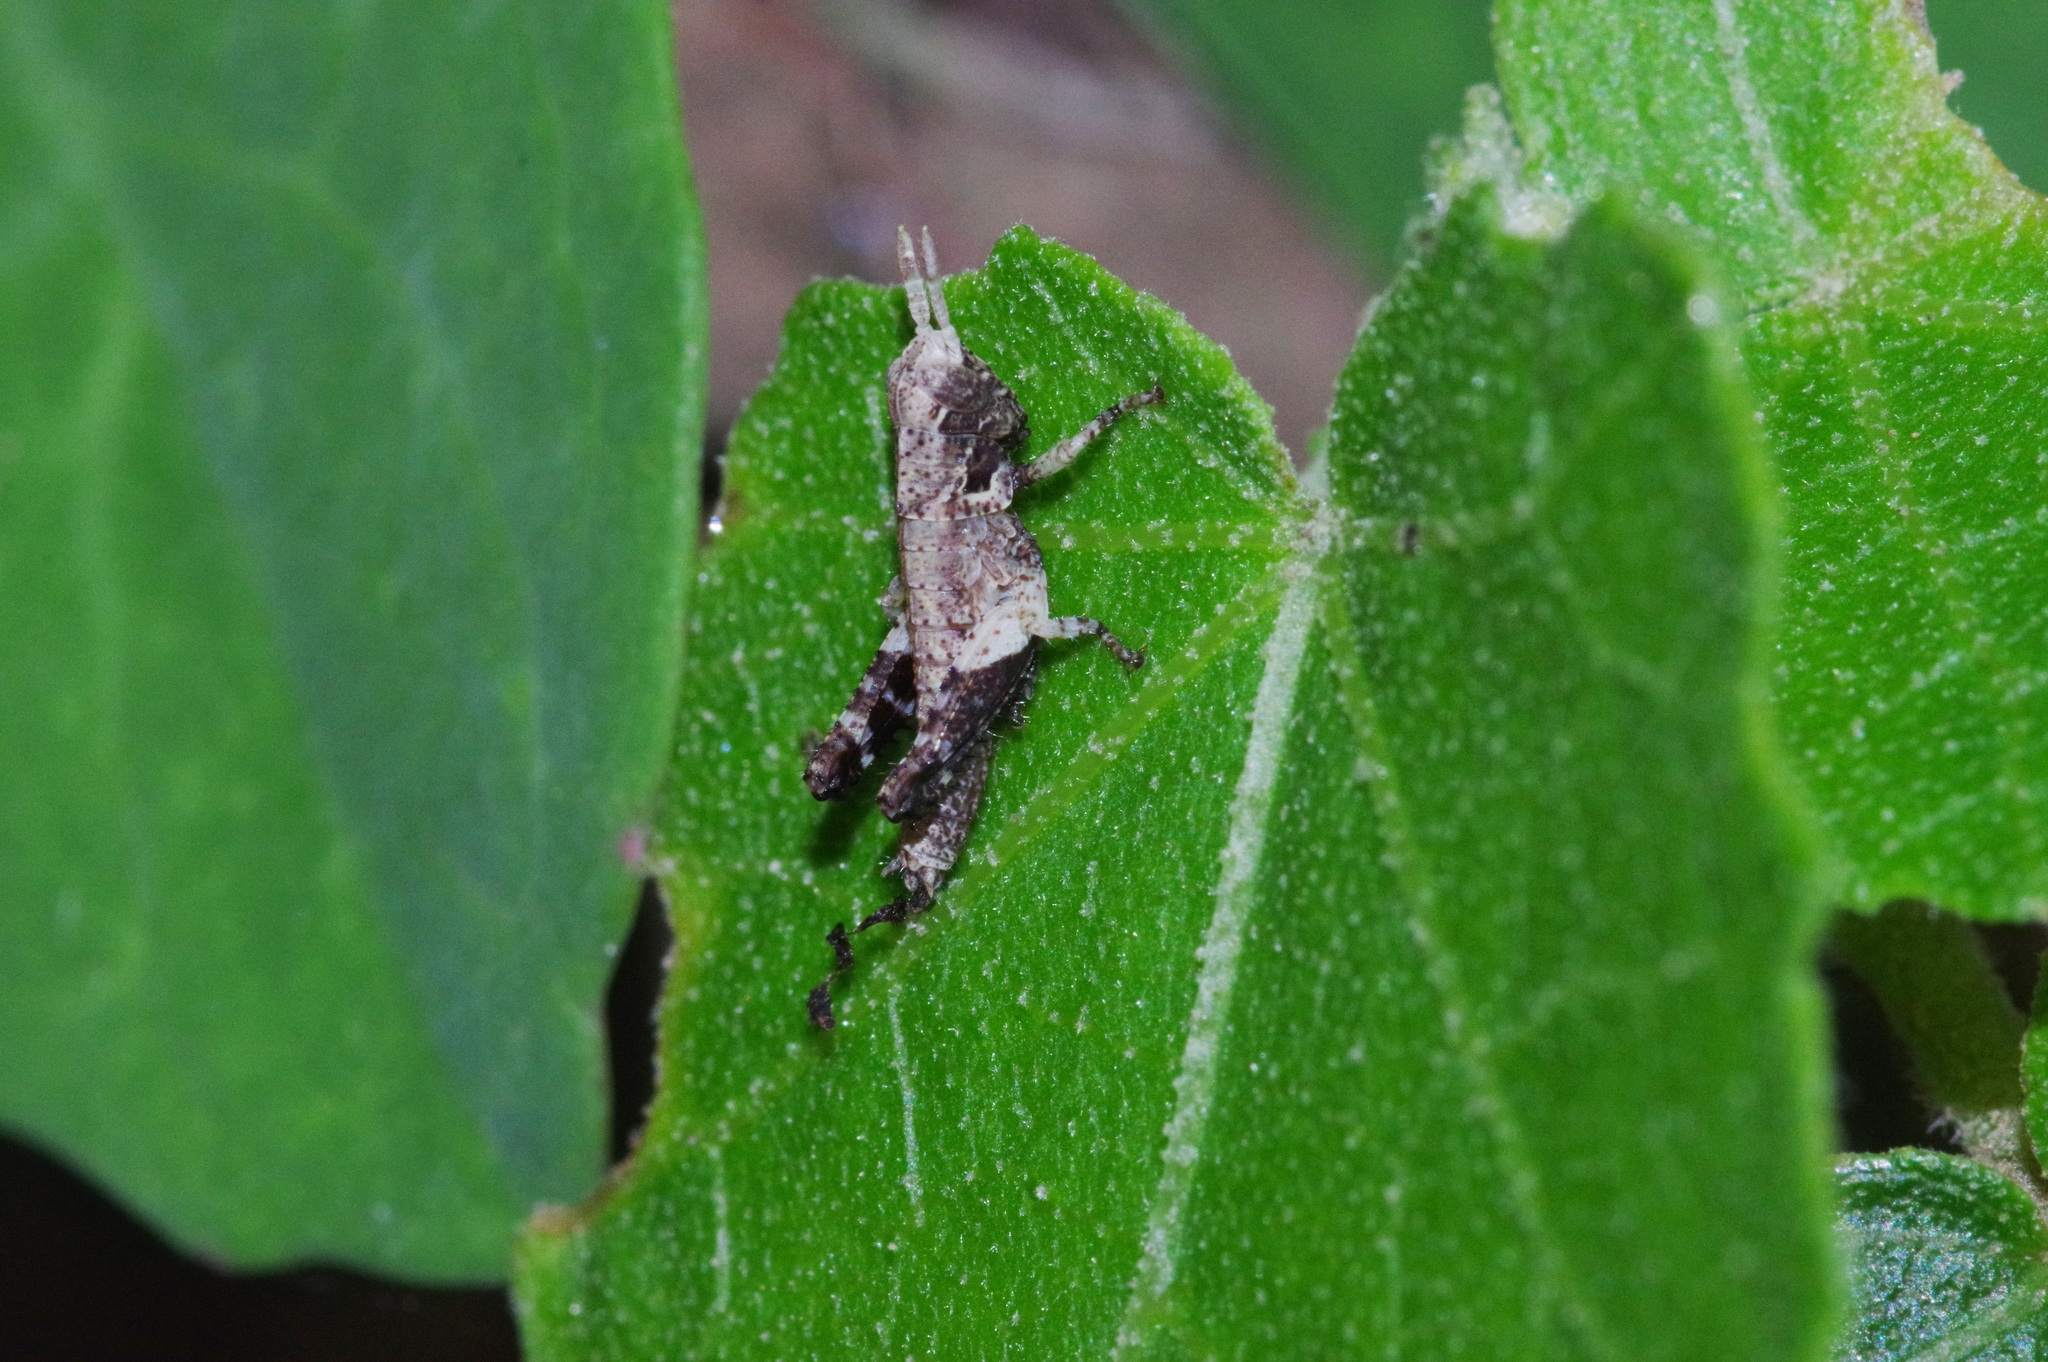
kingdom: Animalia
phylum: Arthropoda
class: Insecta
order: Orthoptera
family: Acrididae
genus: Traulia
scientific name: Traulia ornata
